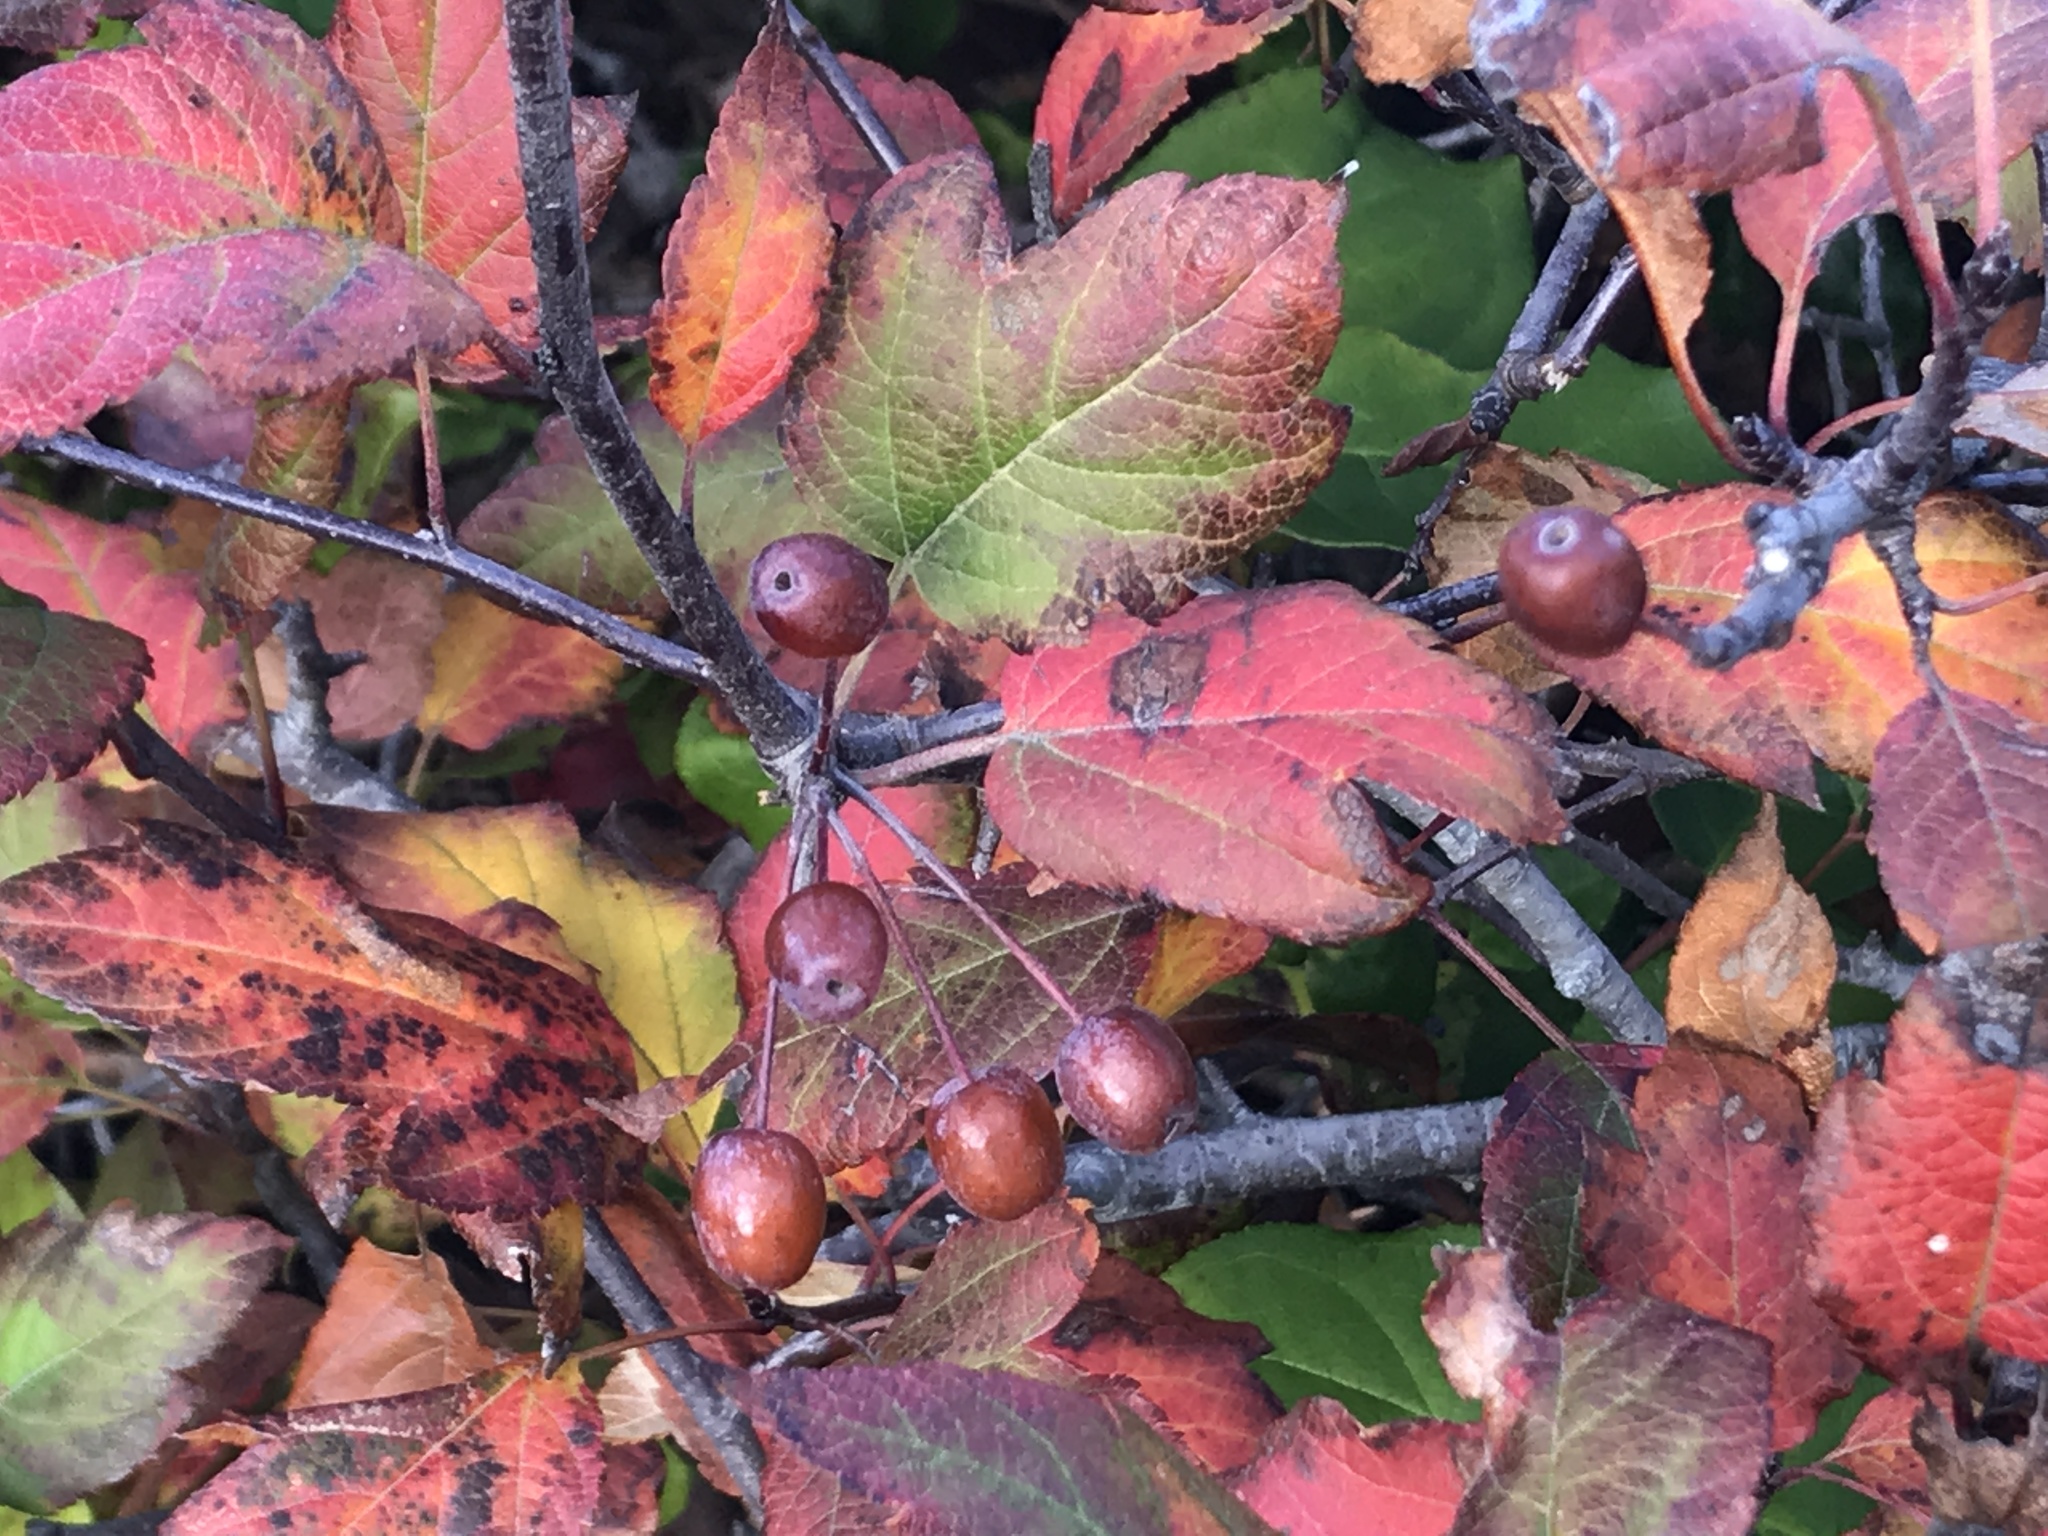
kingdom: Plantae
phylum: Tracheophyta
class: Magnoliopsida
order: Rosales
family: Rosaceae
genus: Malus
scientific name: Malus fusca
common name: Oregon crab apple
